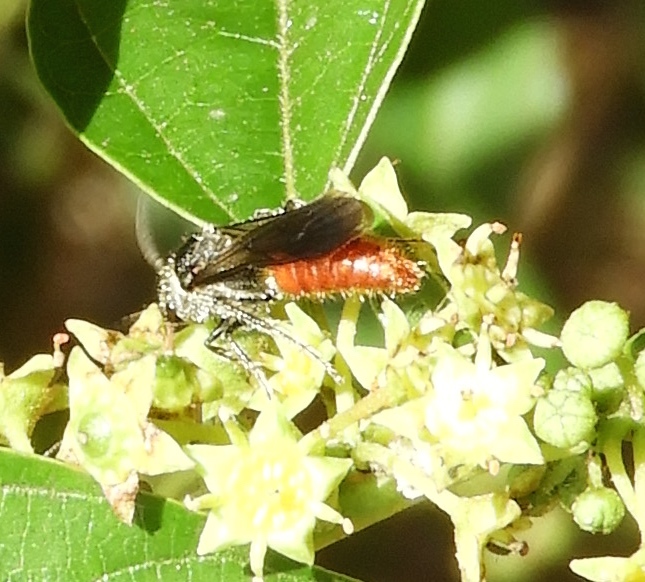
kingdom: Animalia
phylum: Arthropoda
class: Insecta
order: Hymenoptera
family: Mutillidae
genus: Timulla
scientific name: Timulla
